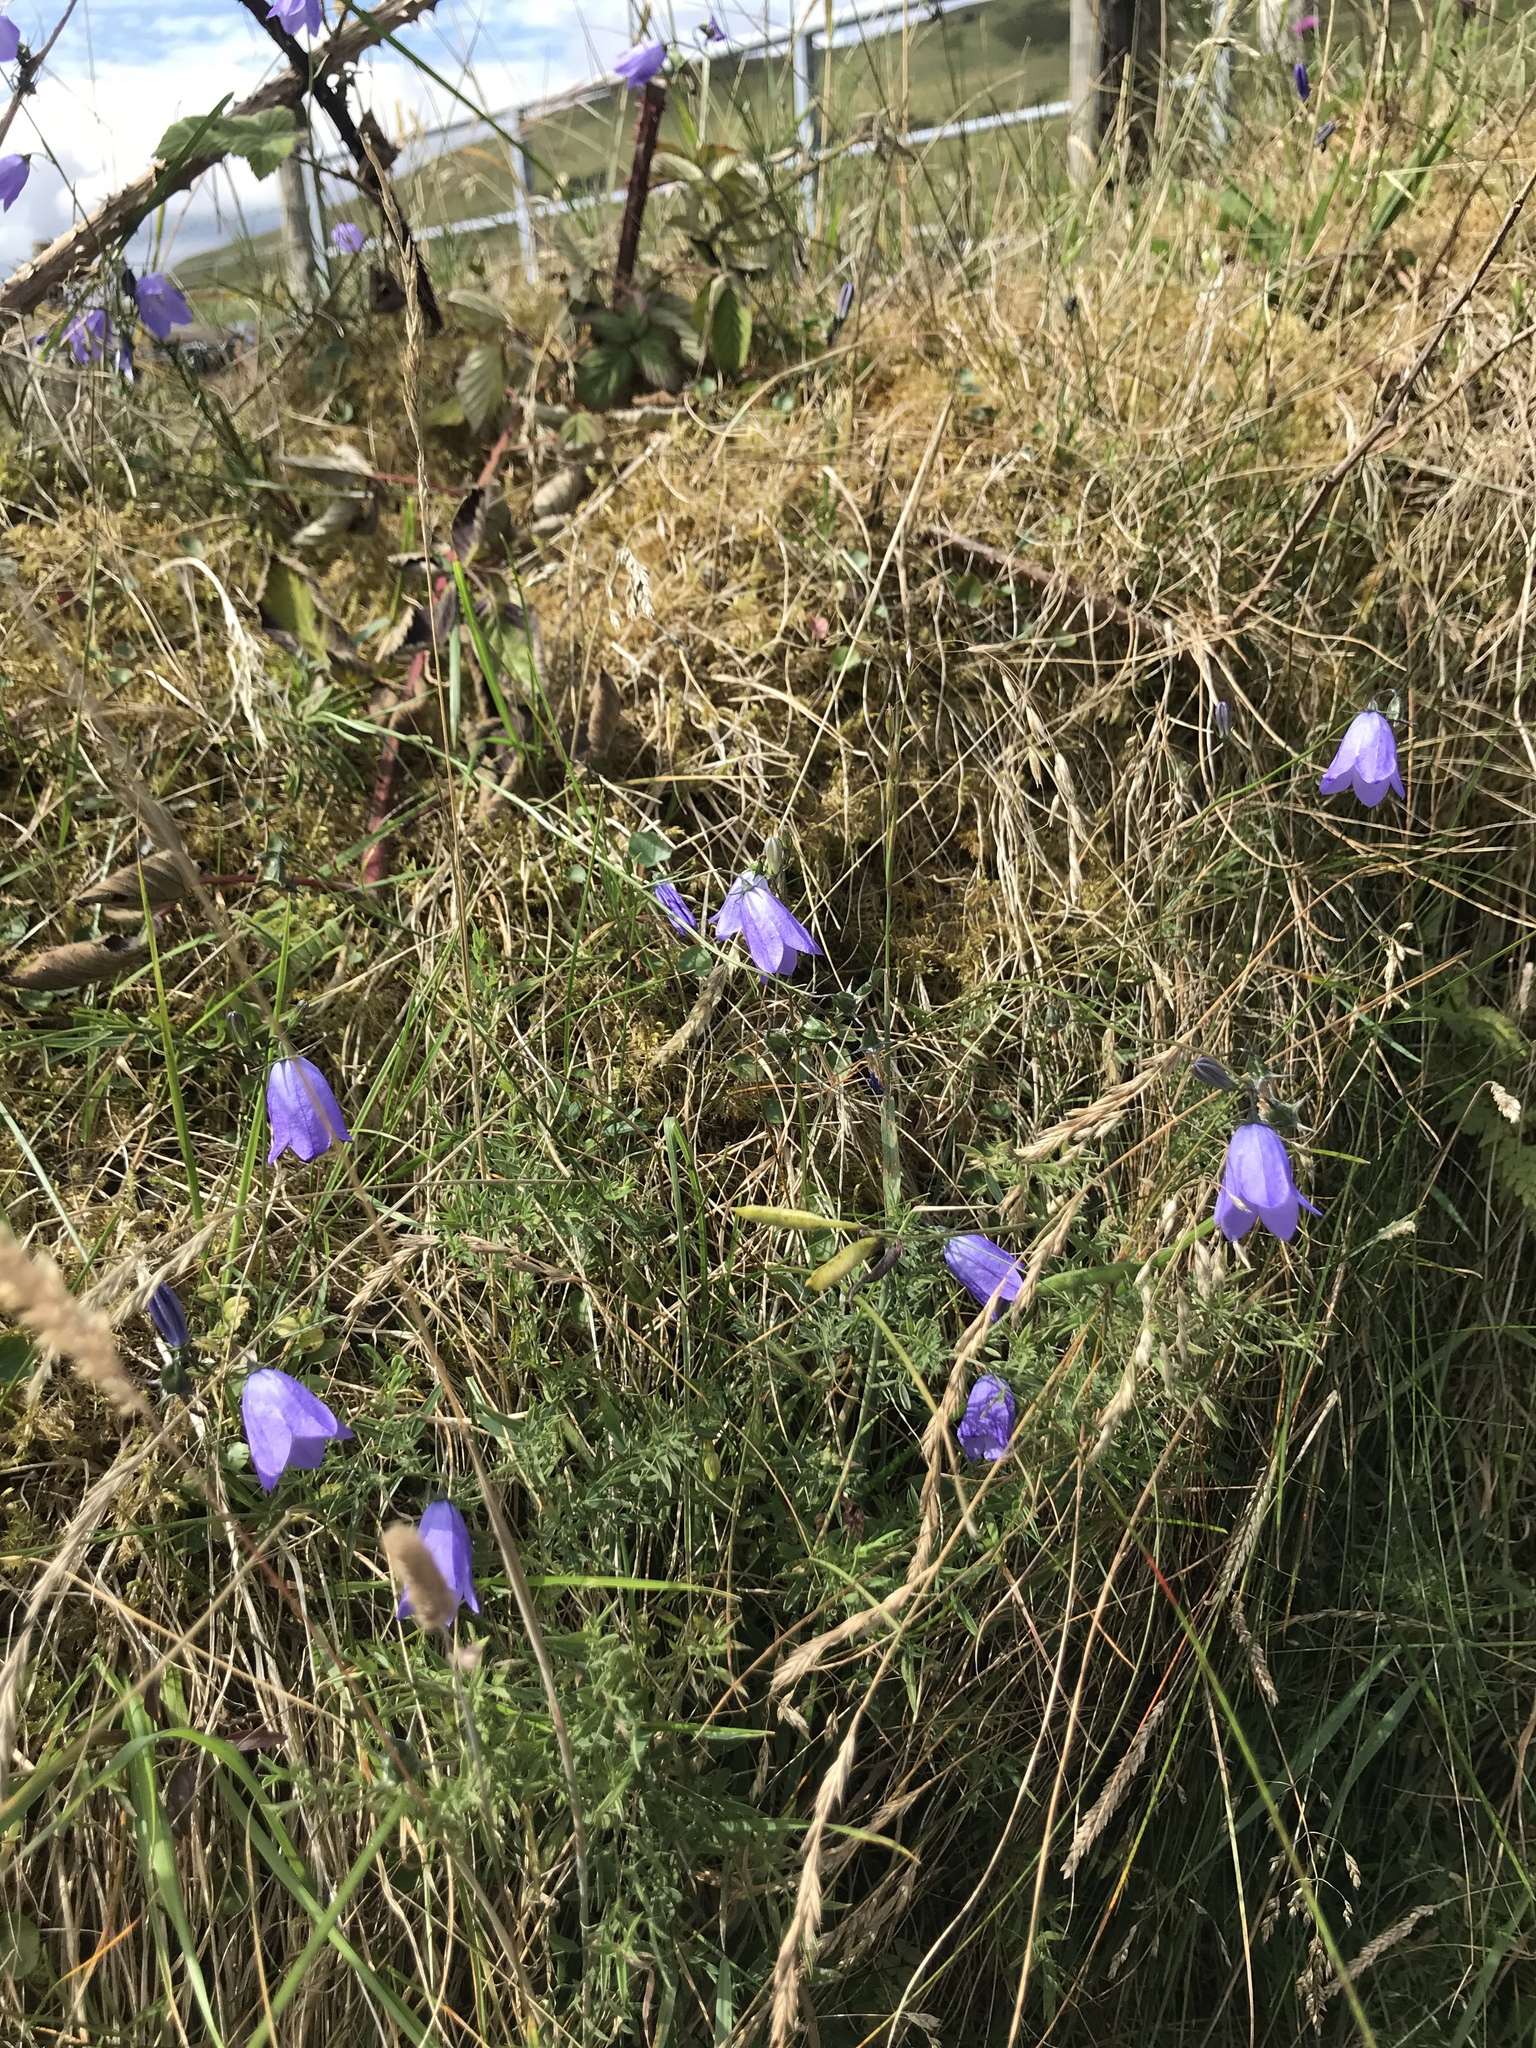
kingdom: Plantae
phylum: Tracheophyta
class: Magnoliopsida
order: Asterales
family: Campanulaceae
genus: Campanula
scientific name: Campanula rotundifolia
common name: Harebell
